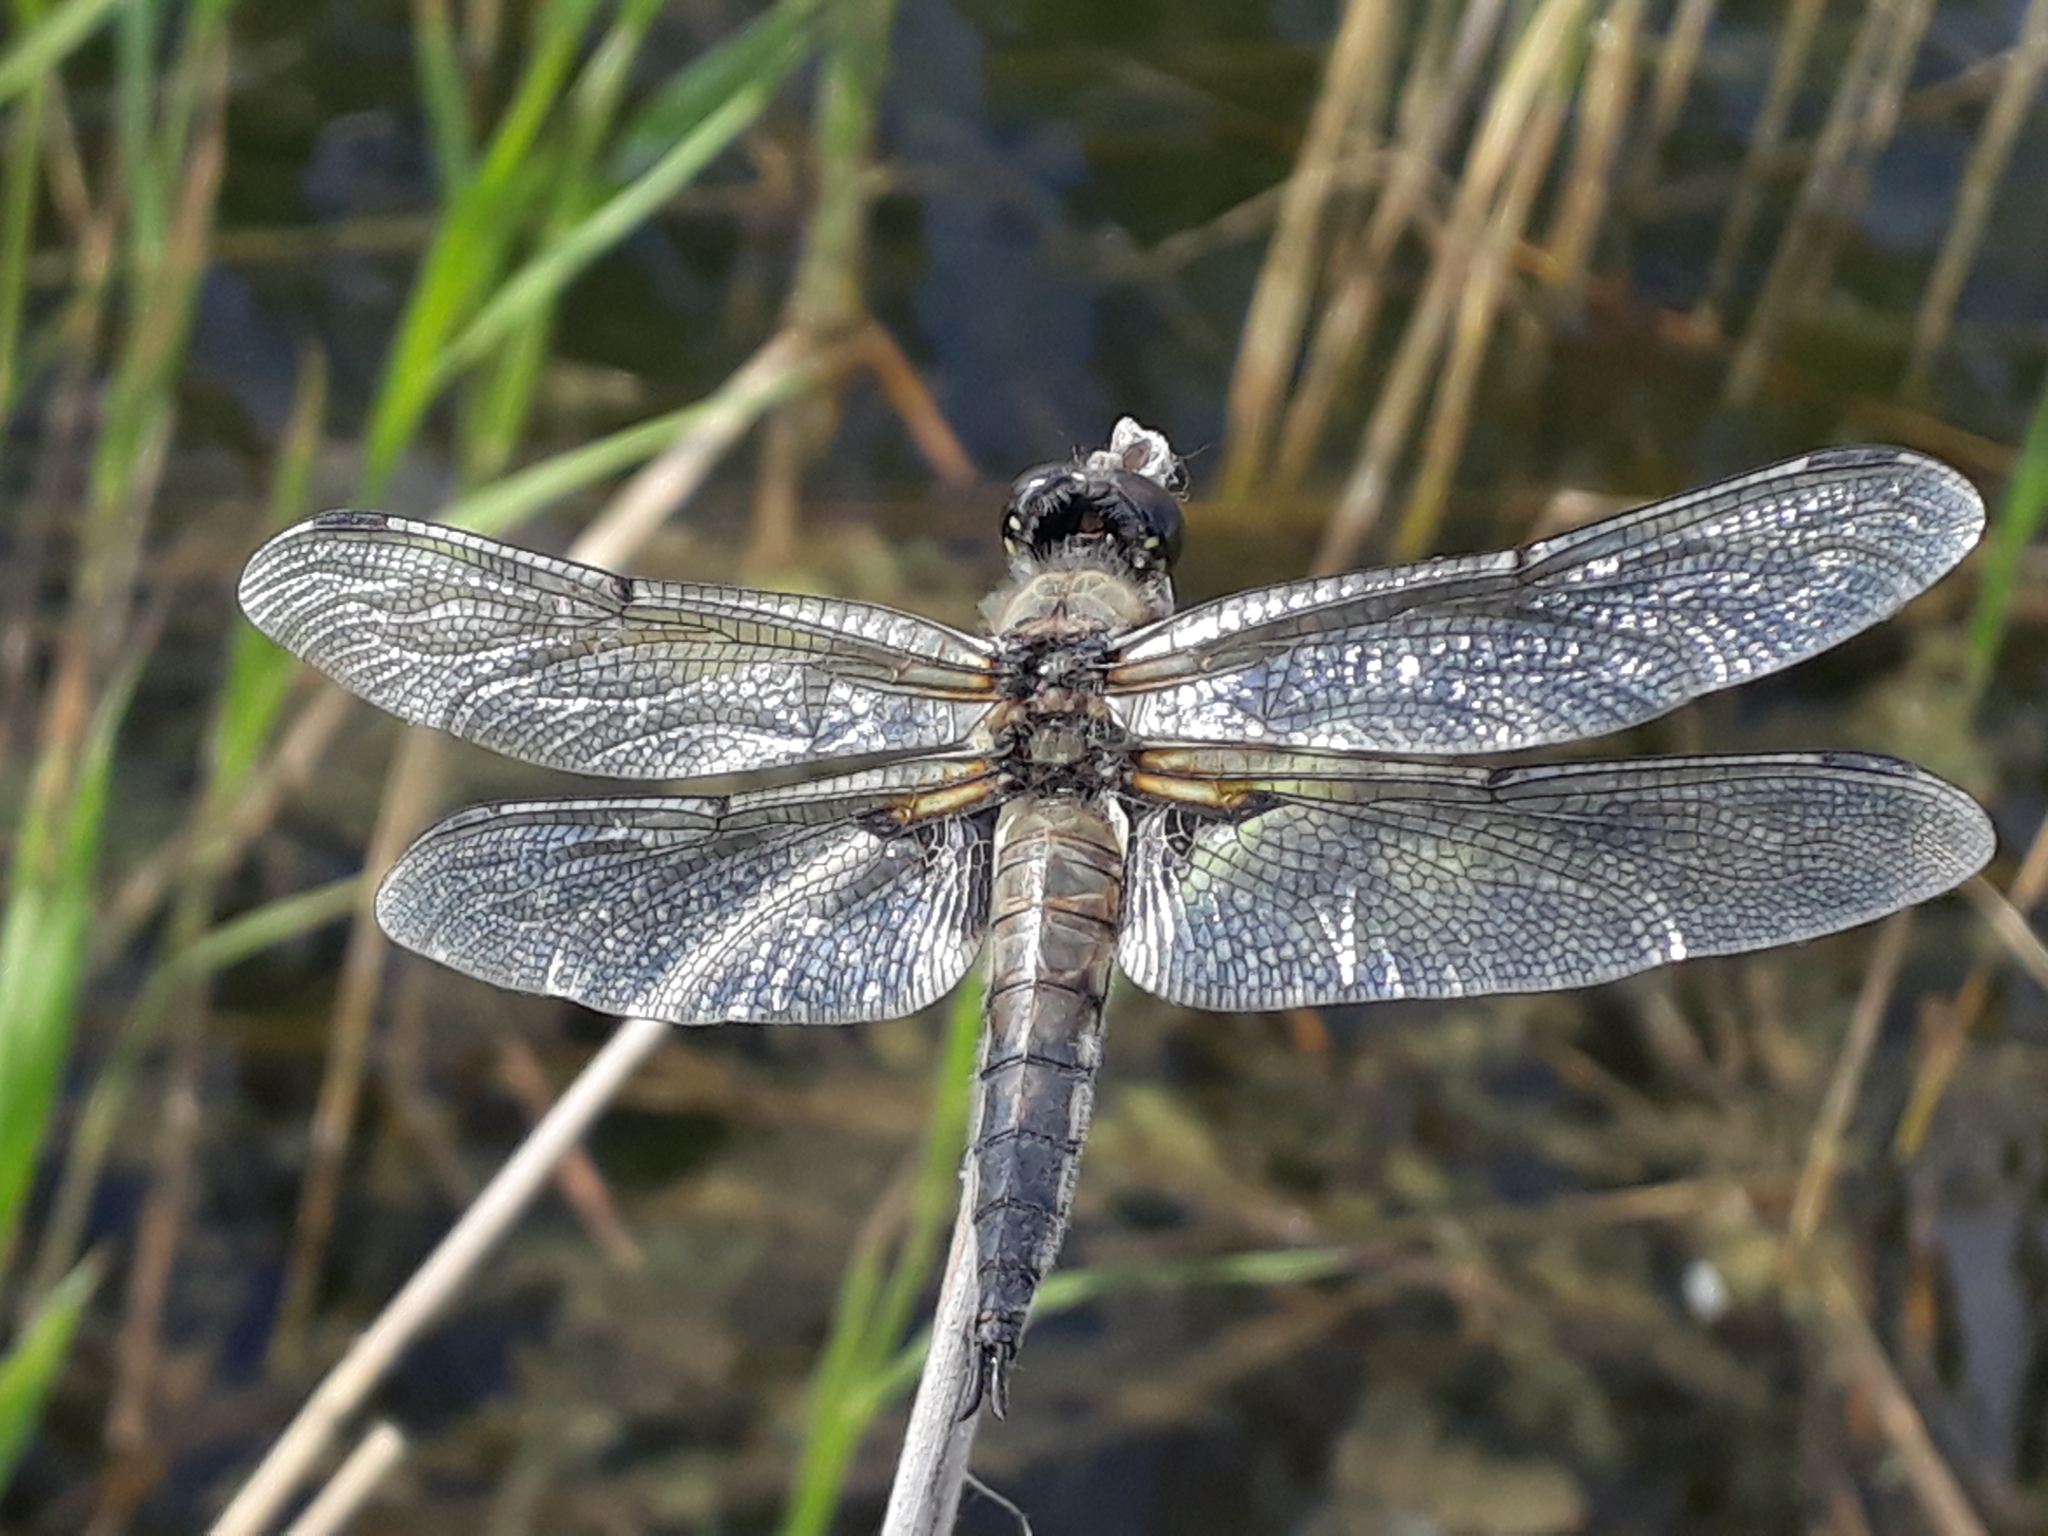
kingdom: Animalia
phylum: Arthropoda
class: Insecta
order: Odonata
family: Libellulidae
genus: Libellula
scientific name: Libellula quadrimaculata
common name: Four-spotted chaser
